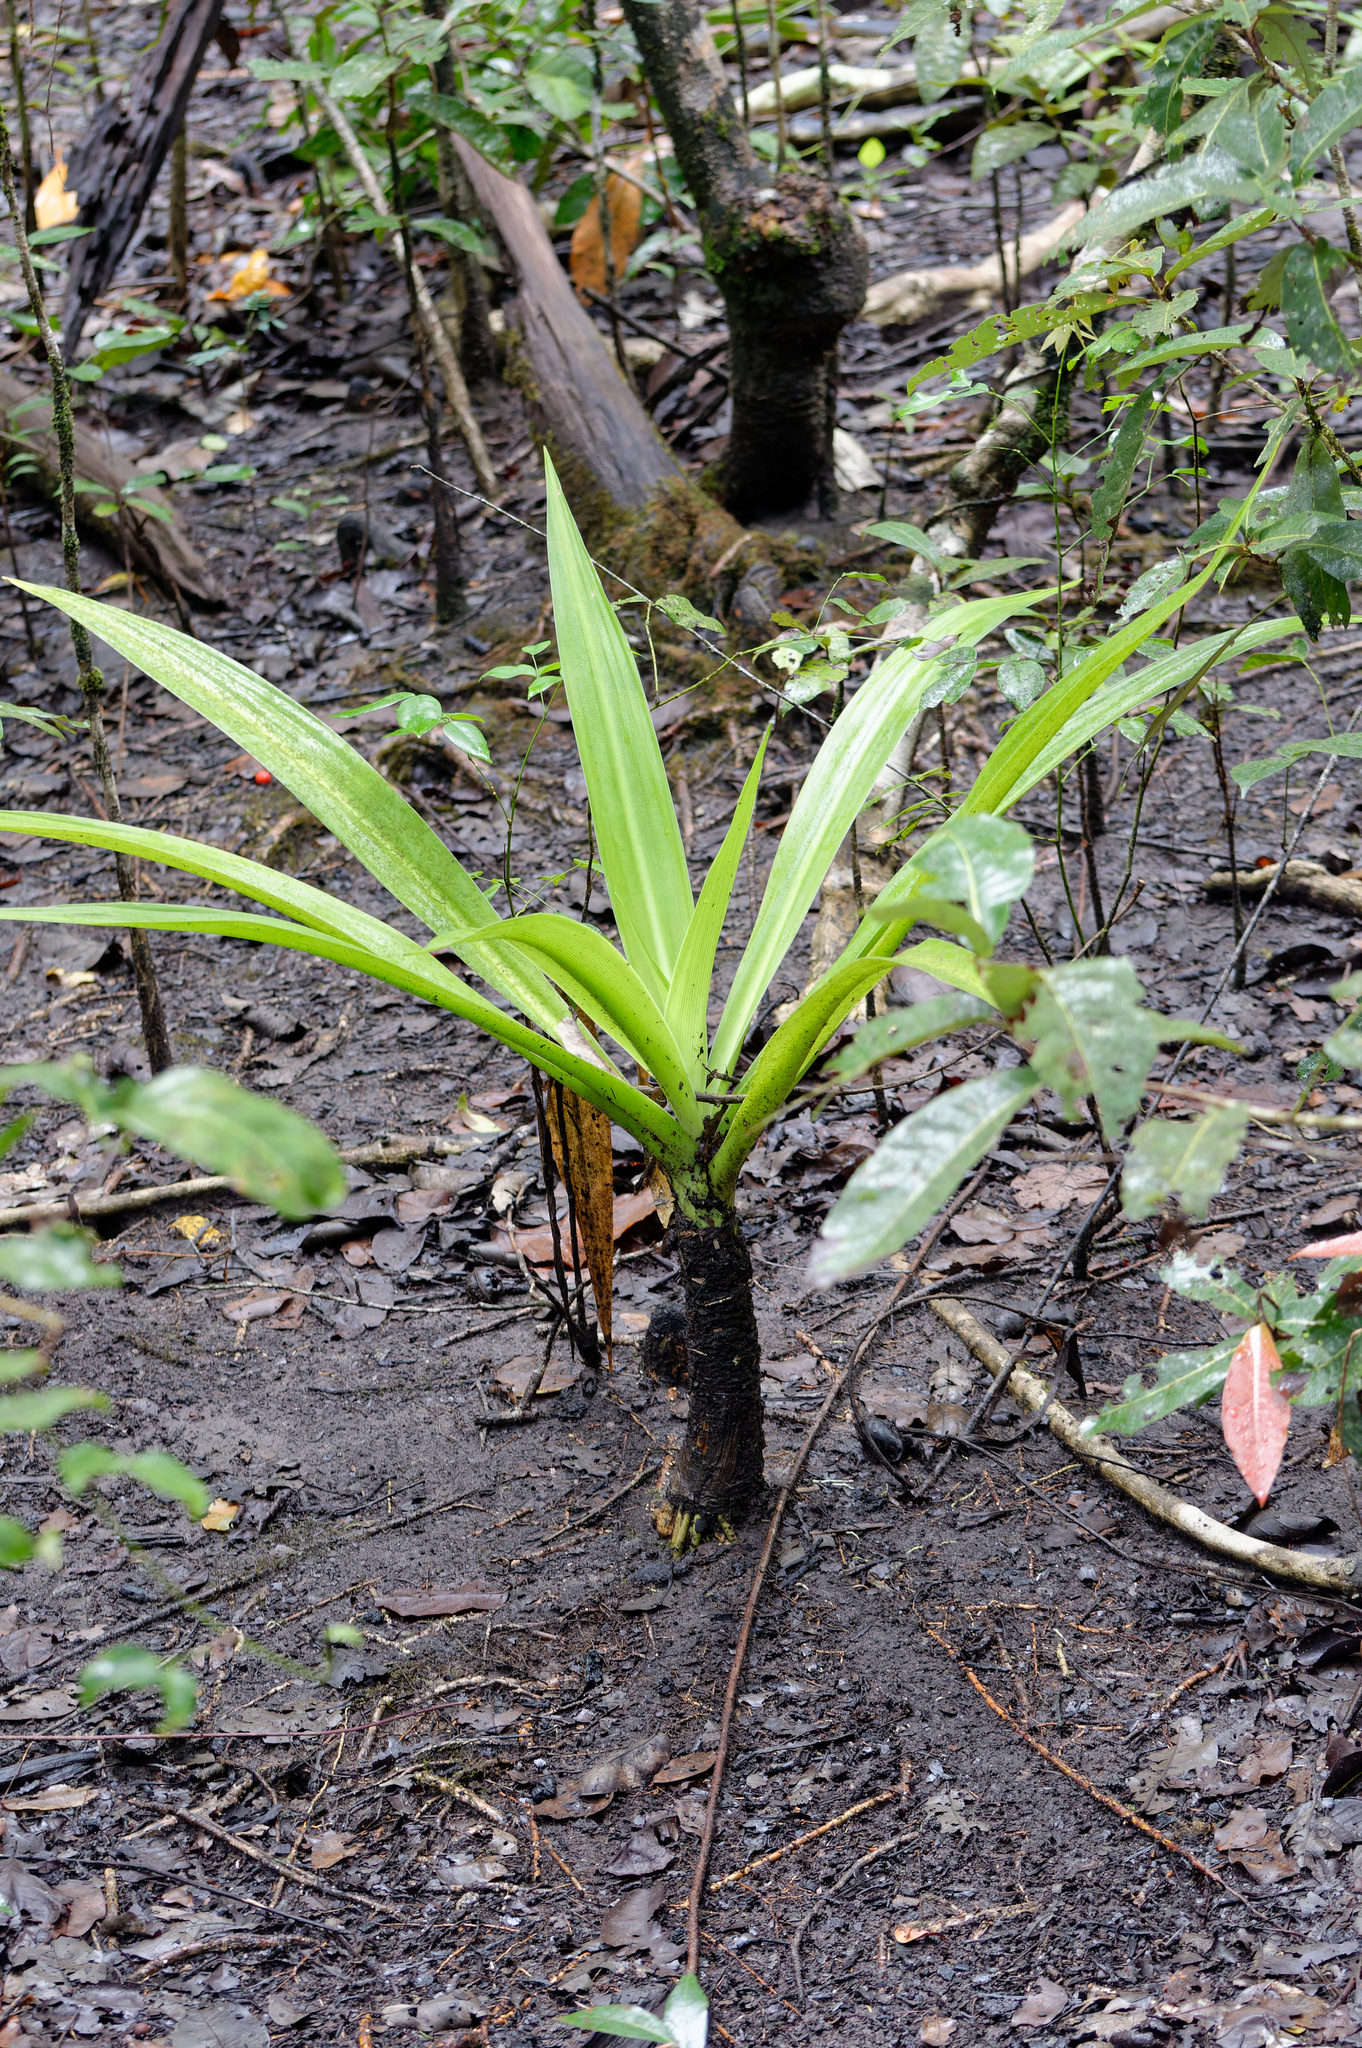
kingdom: Plantae
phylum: Tracheophyta
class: Liliopsida
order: Asparagales
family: Amaryllidaceae
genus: Crinum
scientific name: Crinum pedunculatum
